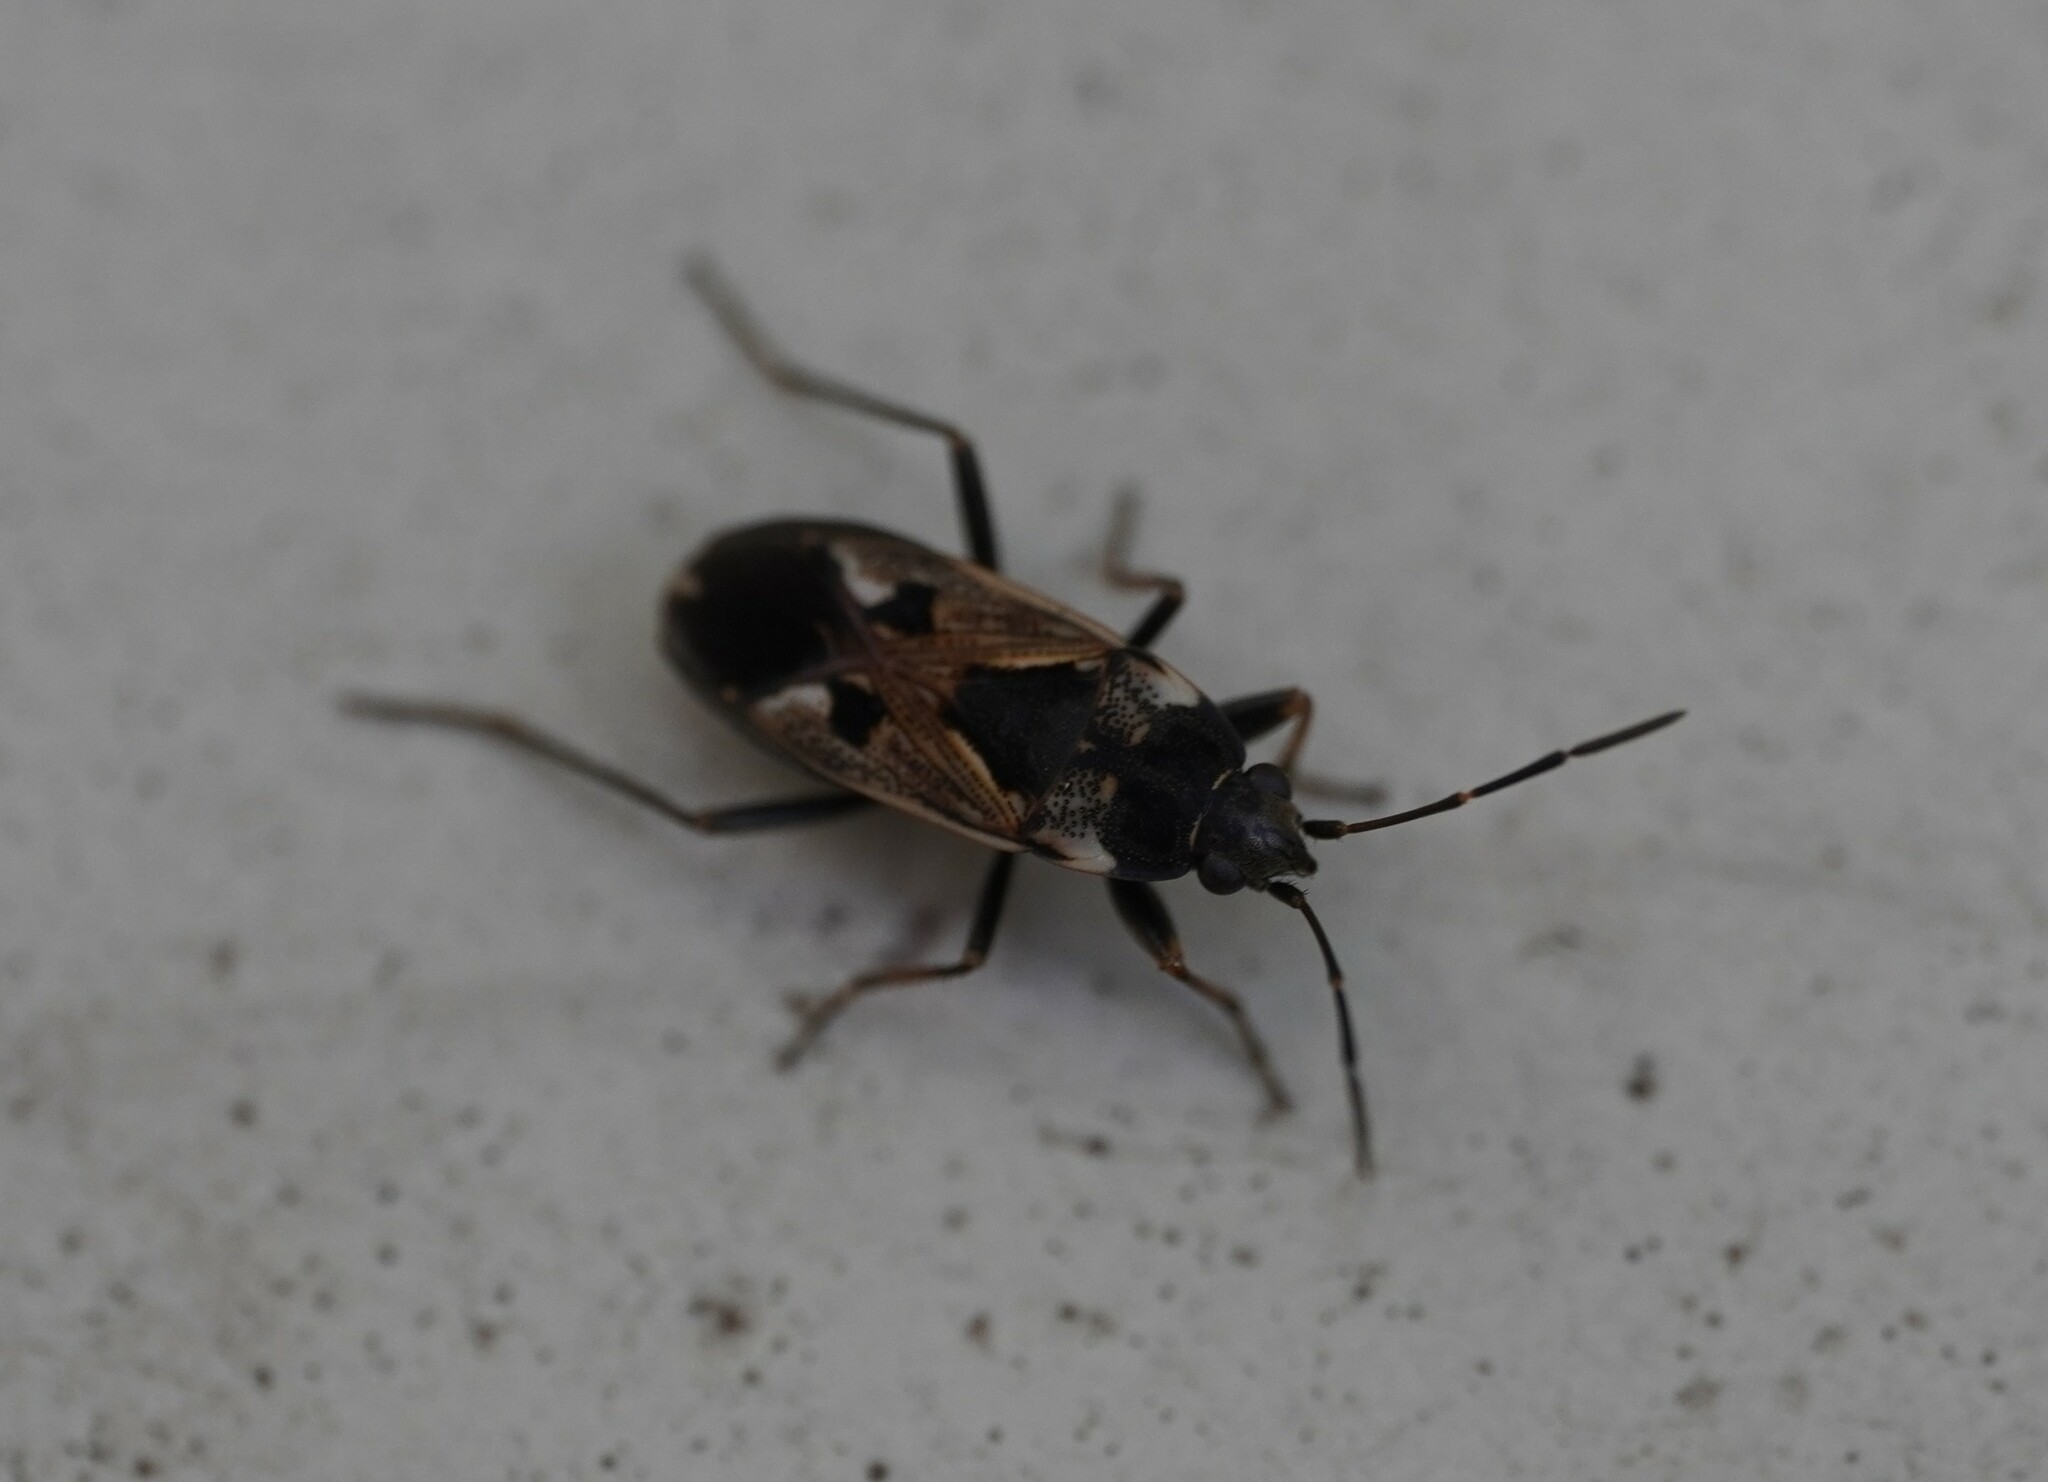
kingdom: Animalia
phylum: Arthropoda
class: Insecta
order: Hemiptera
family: Rhyparochromidae
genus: Rhyparochromus
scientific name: Rhyparochromus vulgaris
